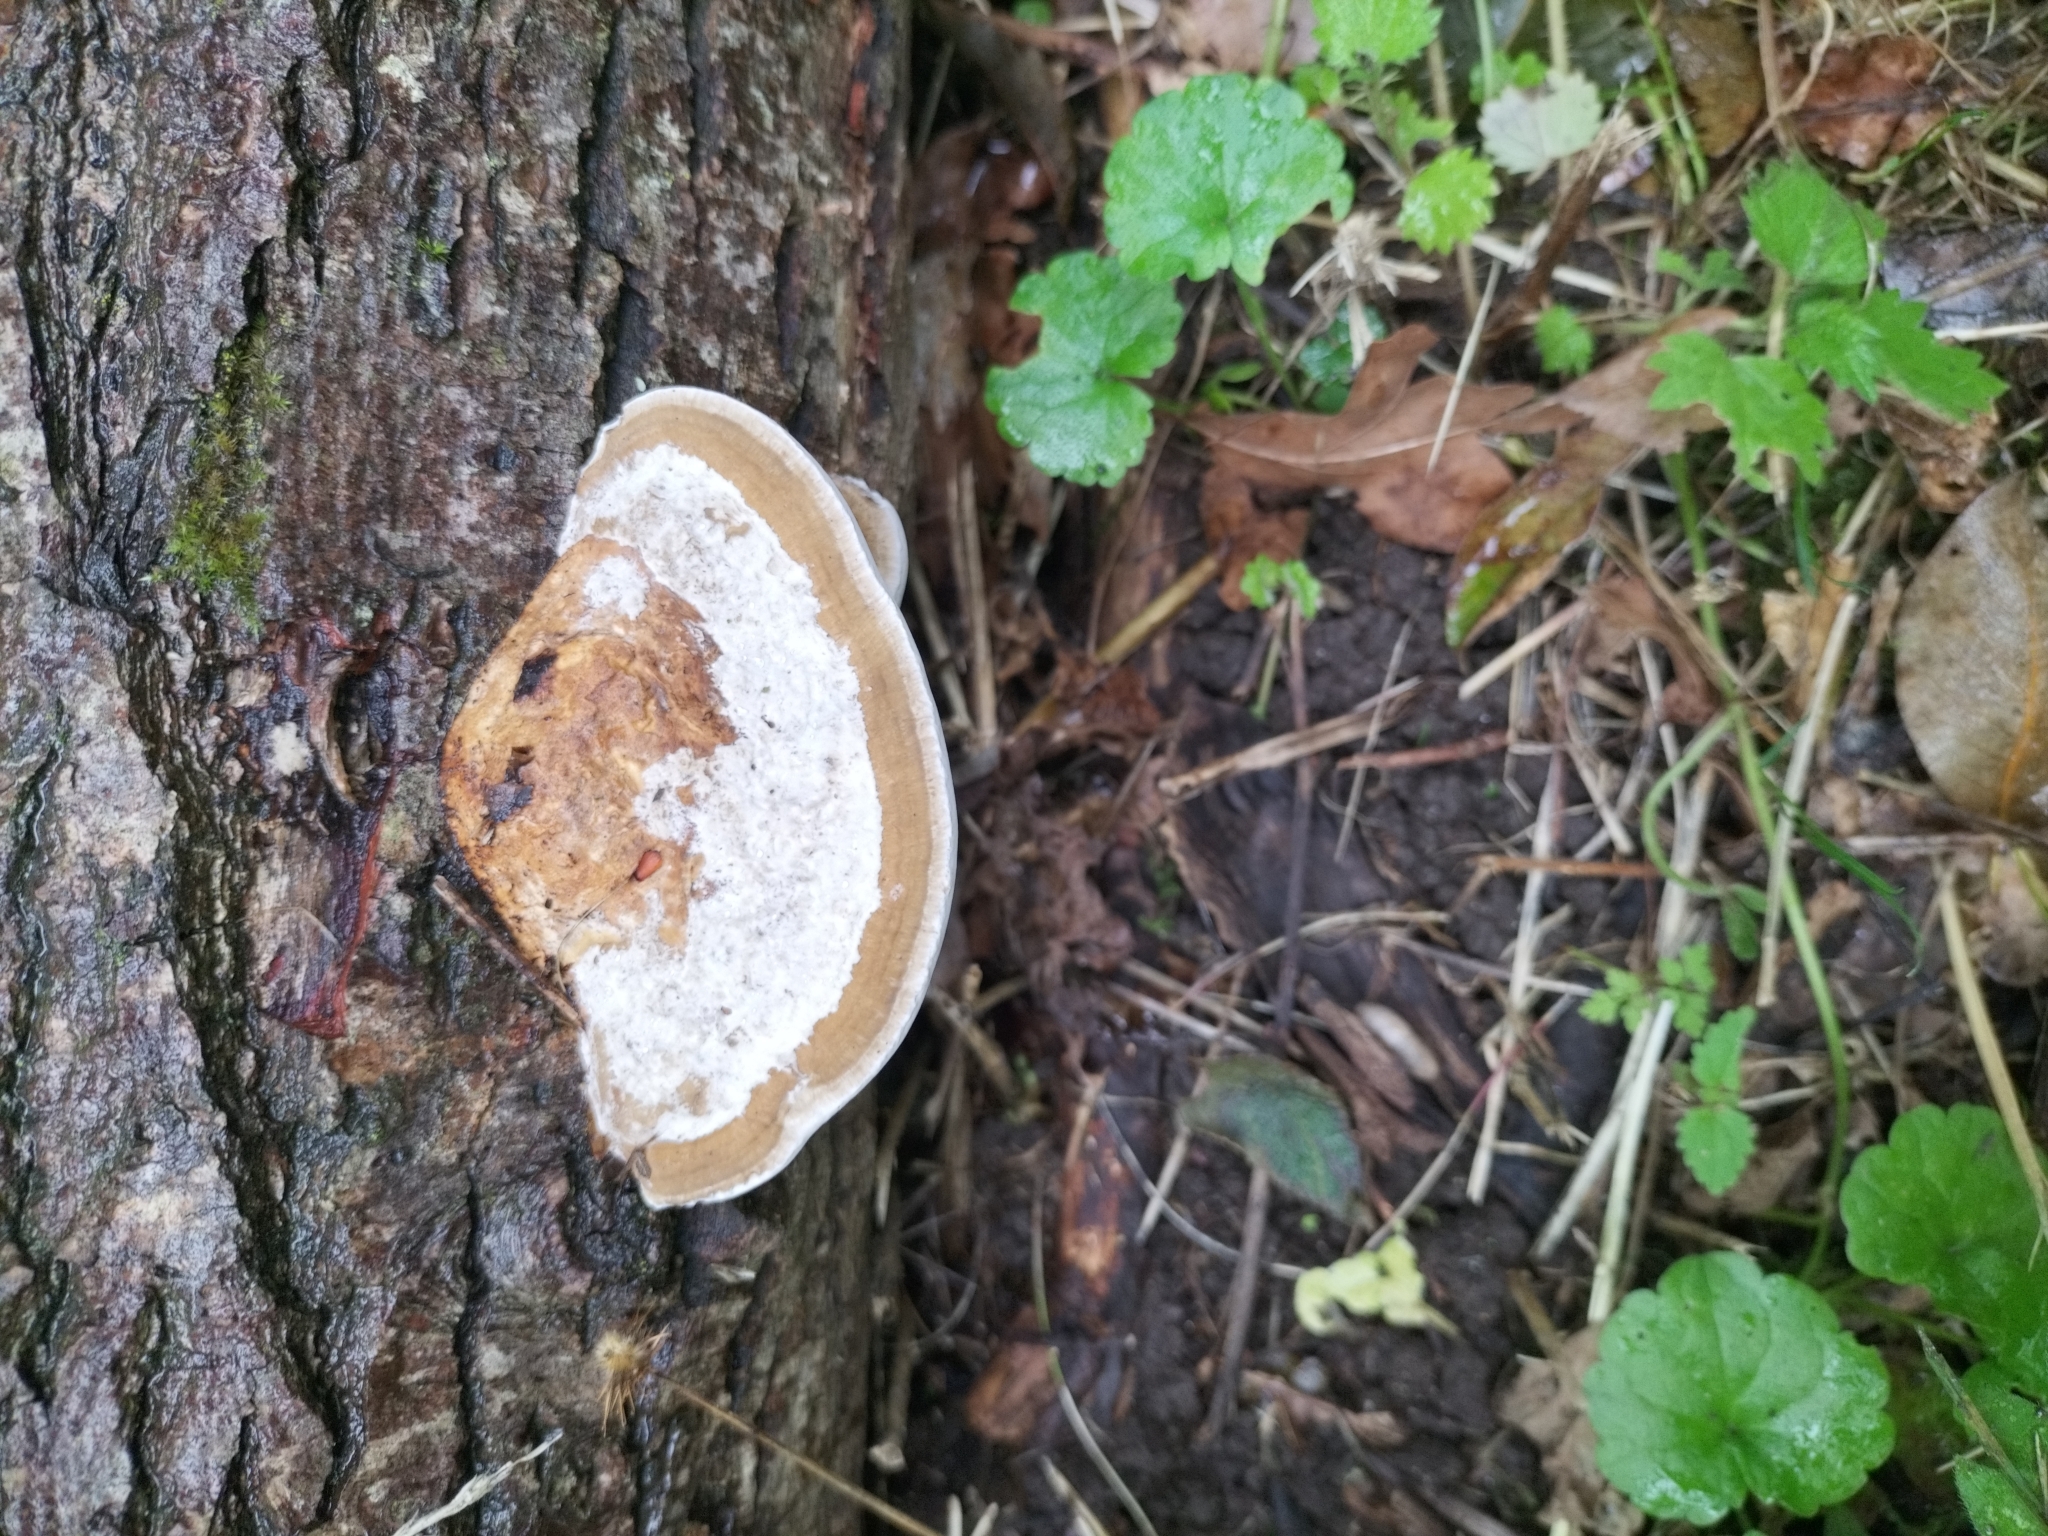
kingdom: Fungi
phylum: Basidiomycota
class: Agaricomycetes
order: Polyporales
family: Polyporaceae
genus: Daedaleopsis
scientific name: Daedaleopsis confragosa
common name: Blushing bracket
